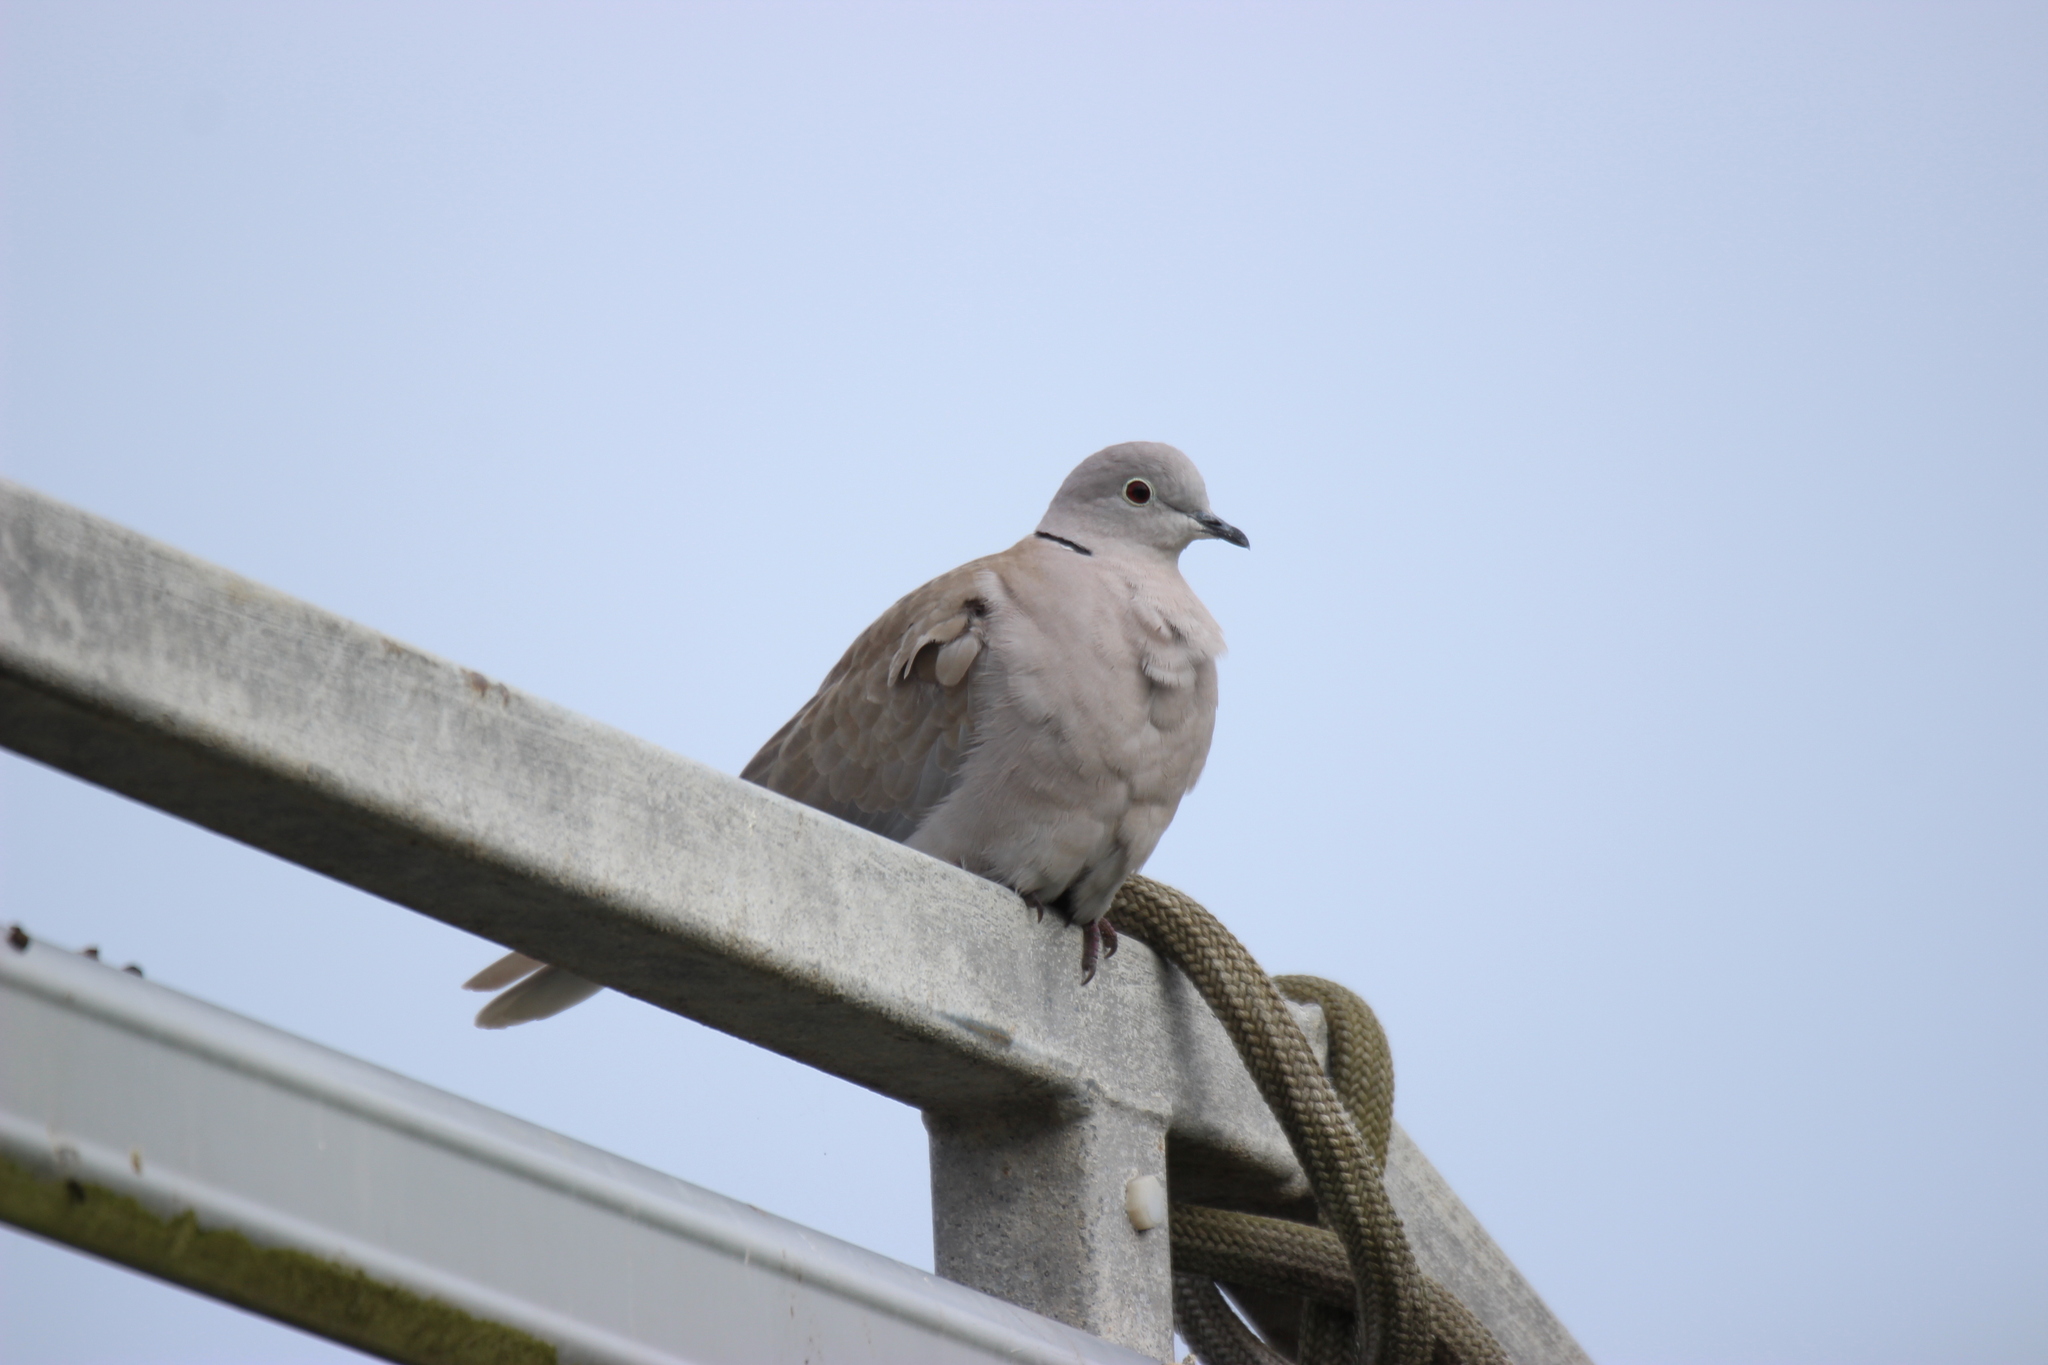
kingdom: Animalia
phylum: Chordata
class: Aves
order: Columbiformes
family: Columbidae
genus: Streptopelia
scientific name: Streptopelia decaocto
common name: Eurasian collared dove
